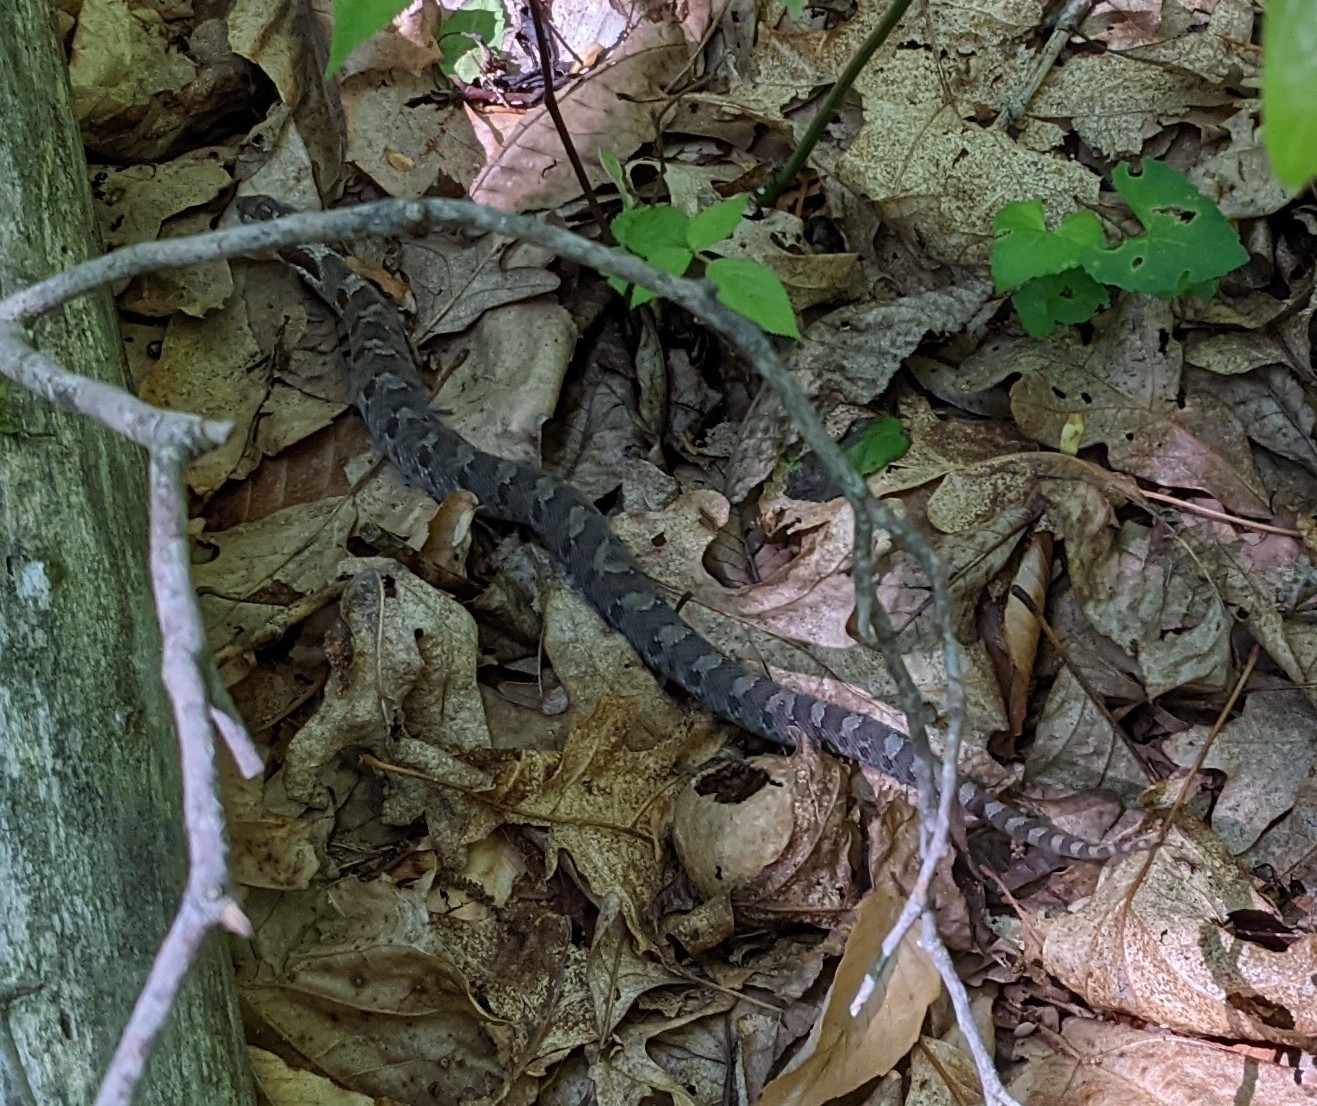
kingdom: Animalia
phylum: Chordata
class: Squamata
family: Colubridae
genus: Heterodon
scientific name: Heterodon platirhinos
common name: Eastern hognose snake
